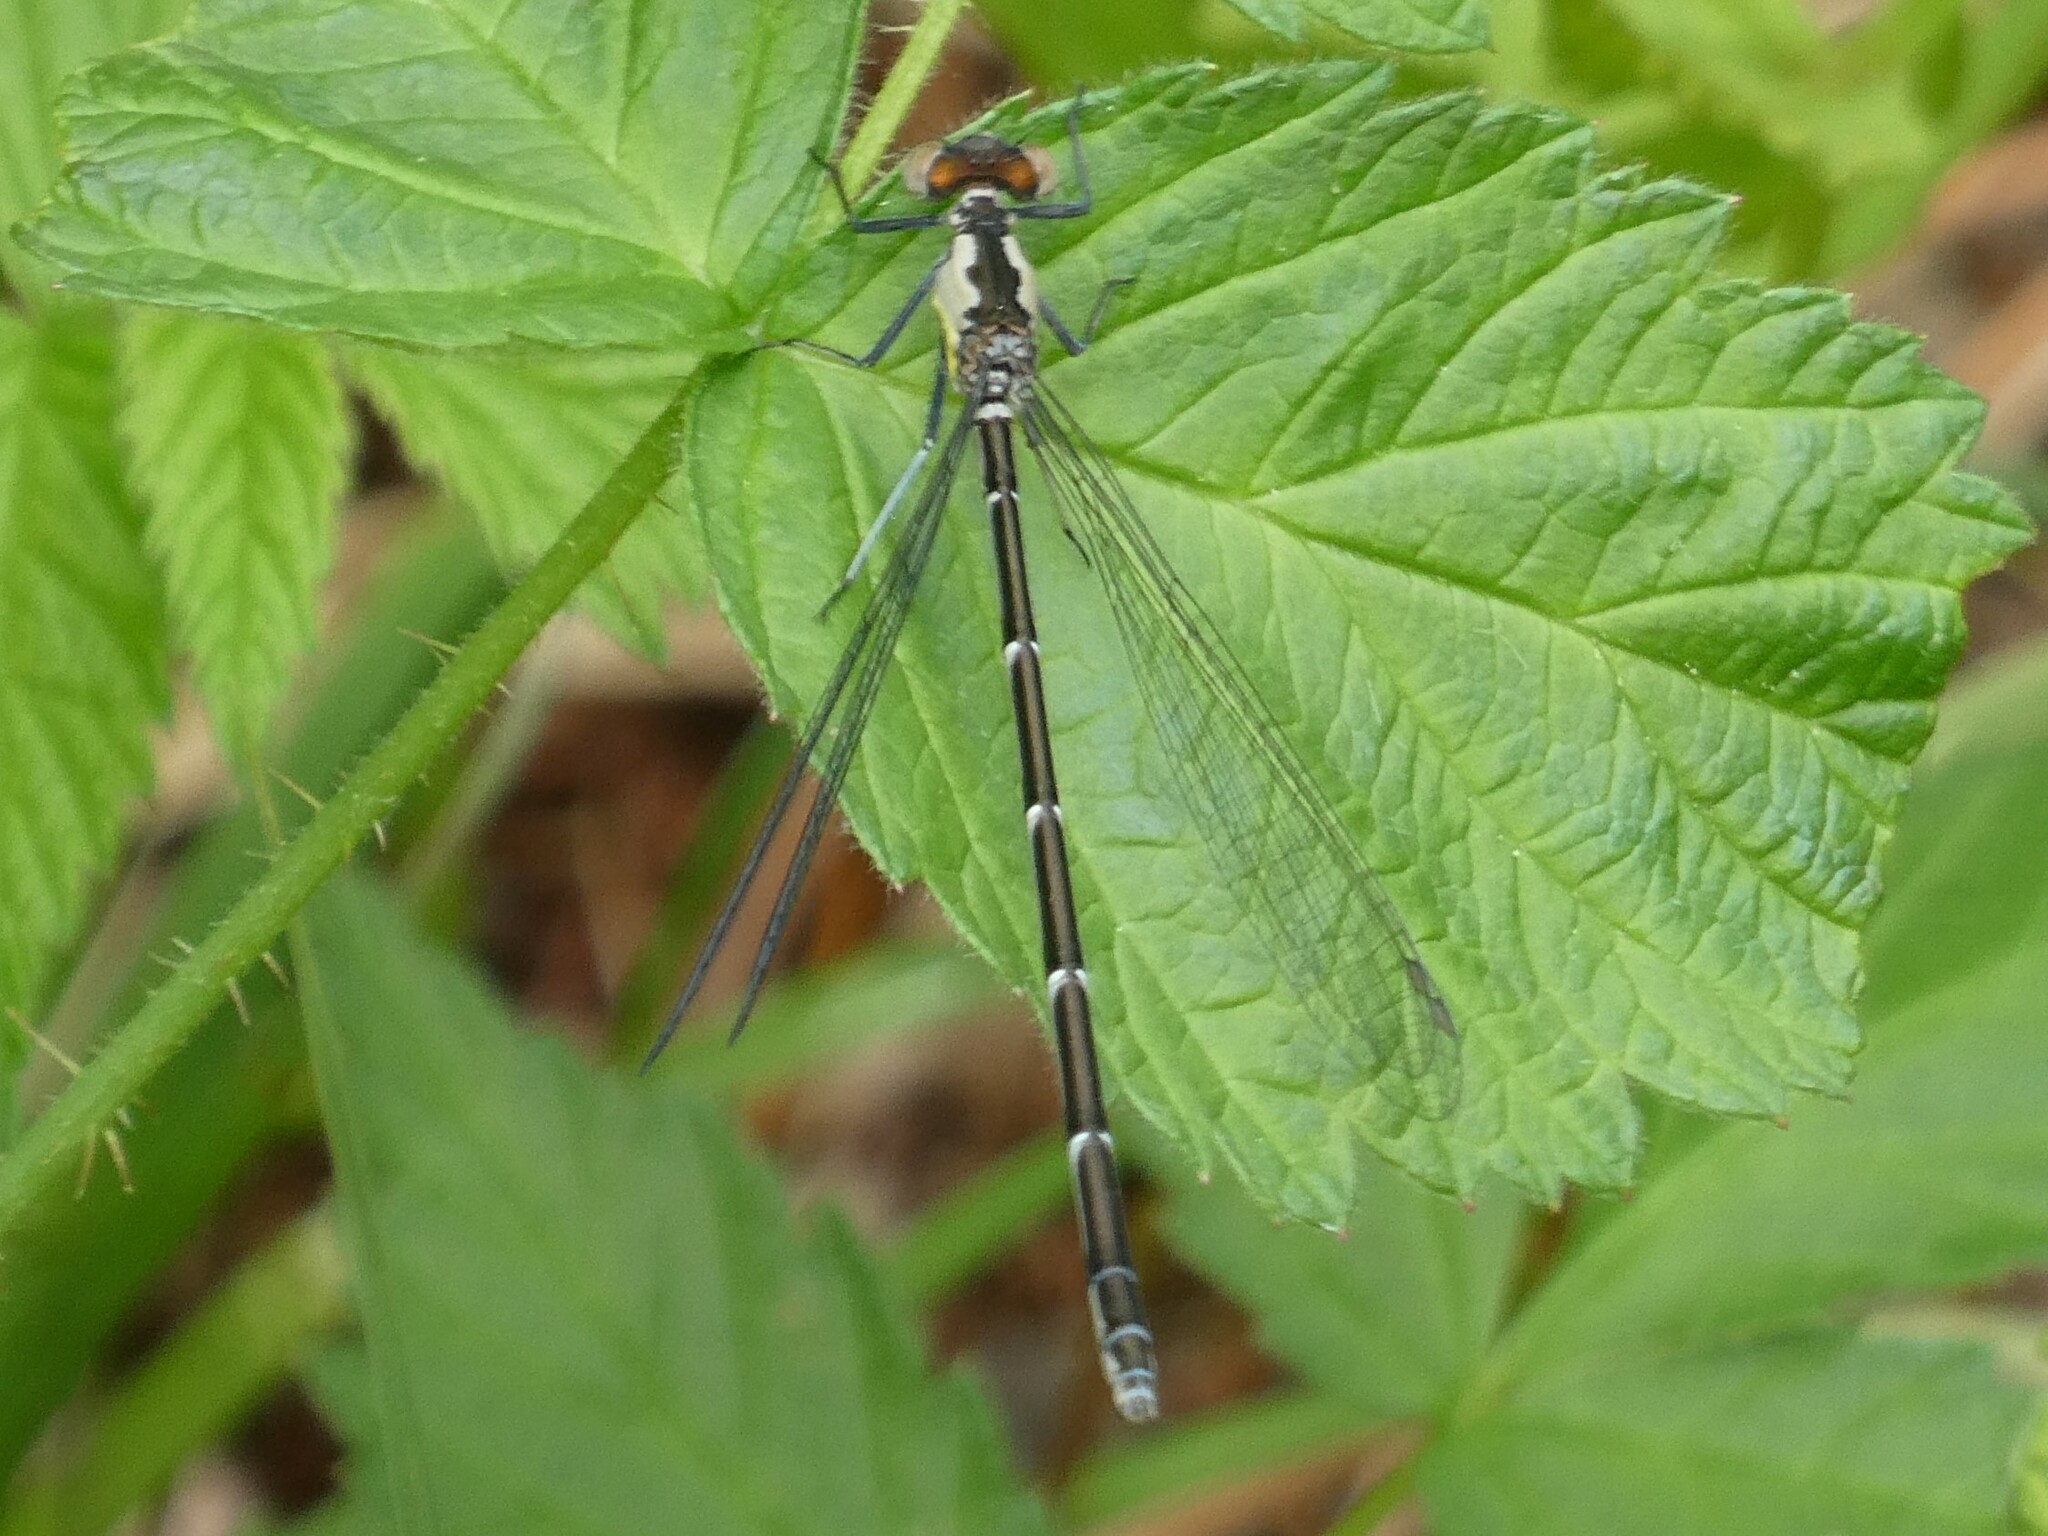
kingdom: Animalia
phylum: Arthropoda
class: Insecta
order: Odonata
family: Coenagrionidae
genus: Chromagrion
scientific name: Chromagrion conditum
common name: Aurora damsel
